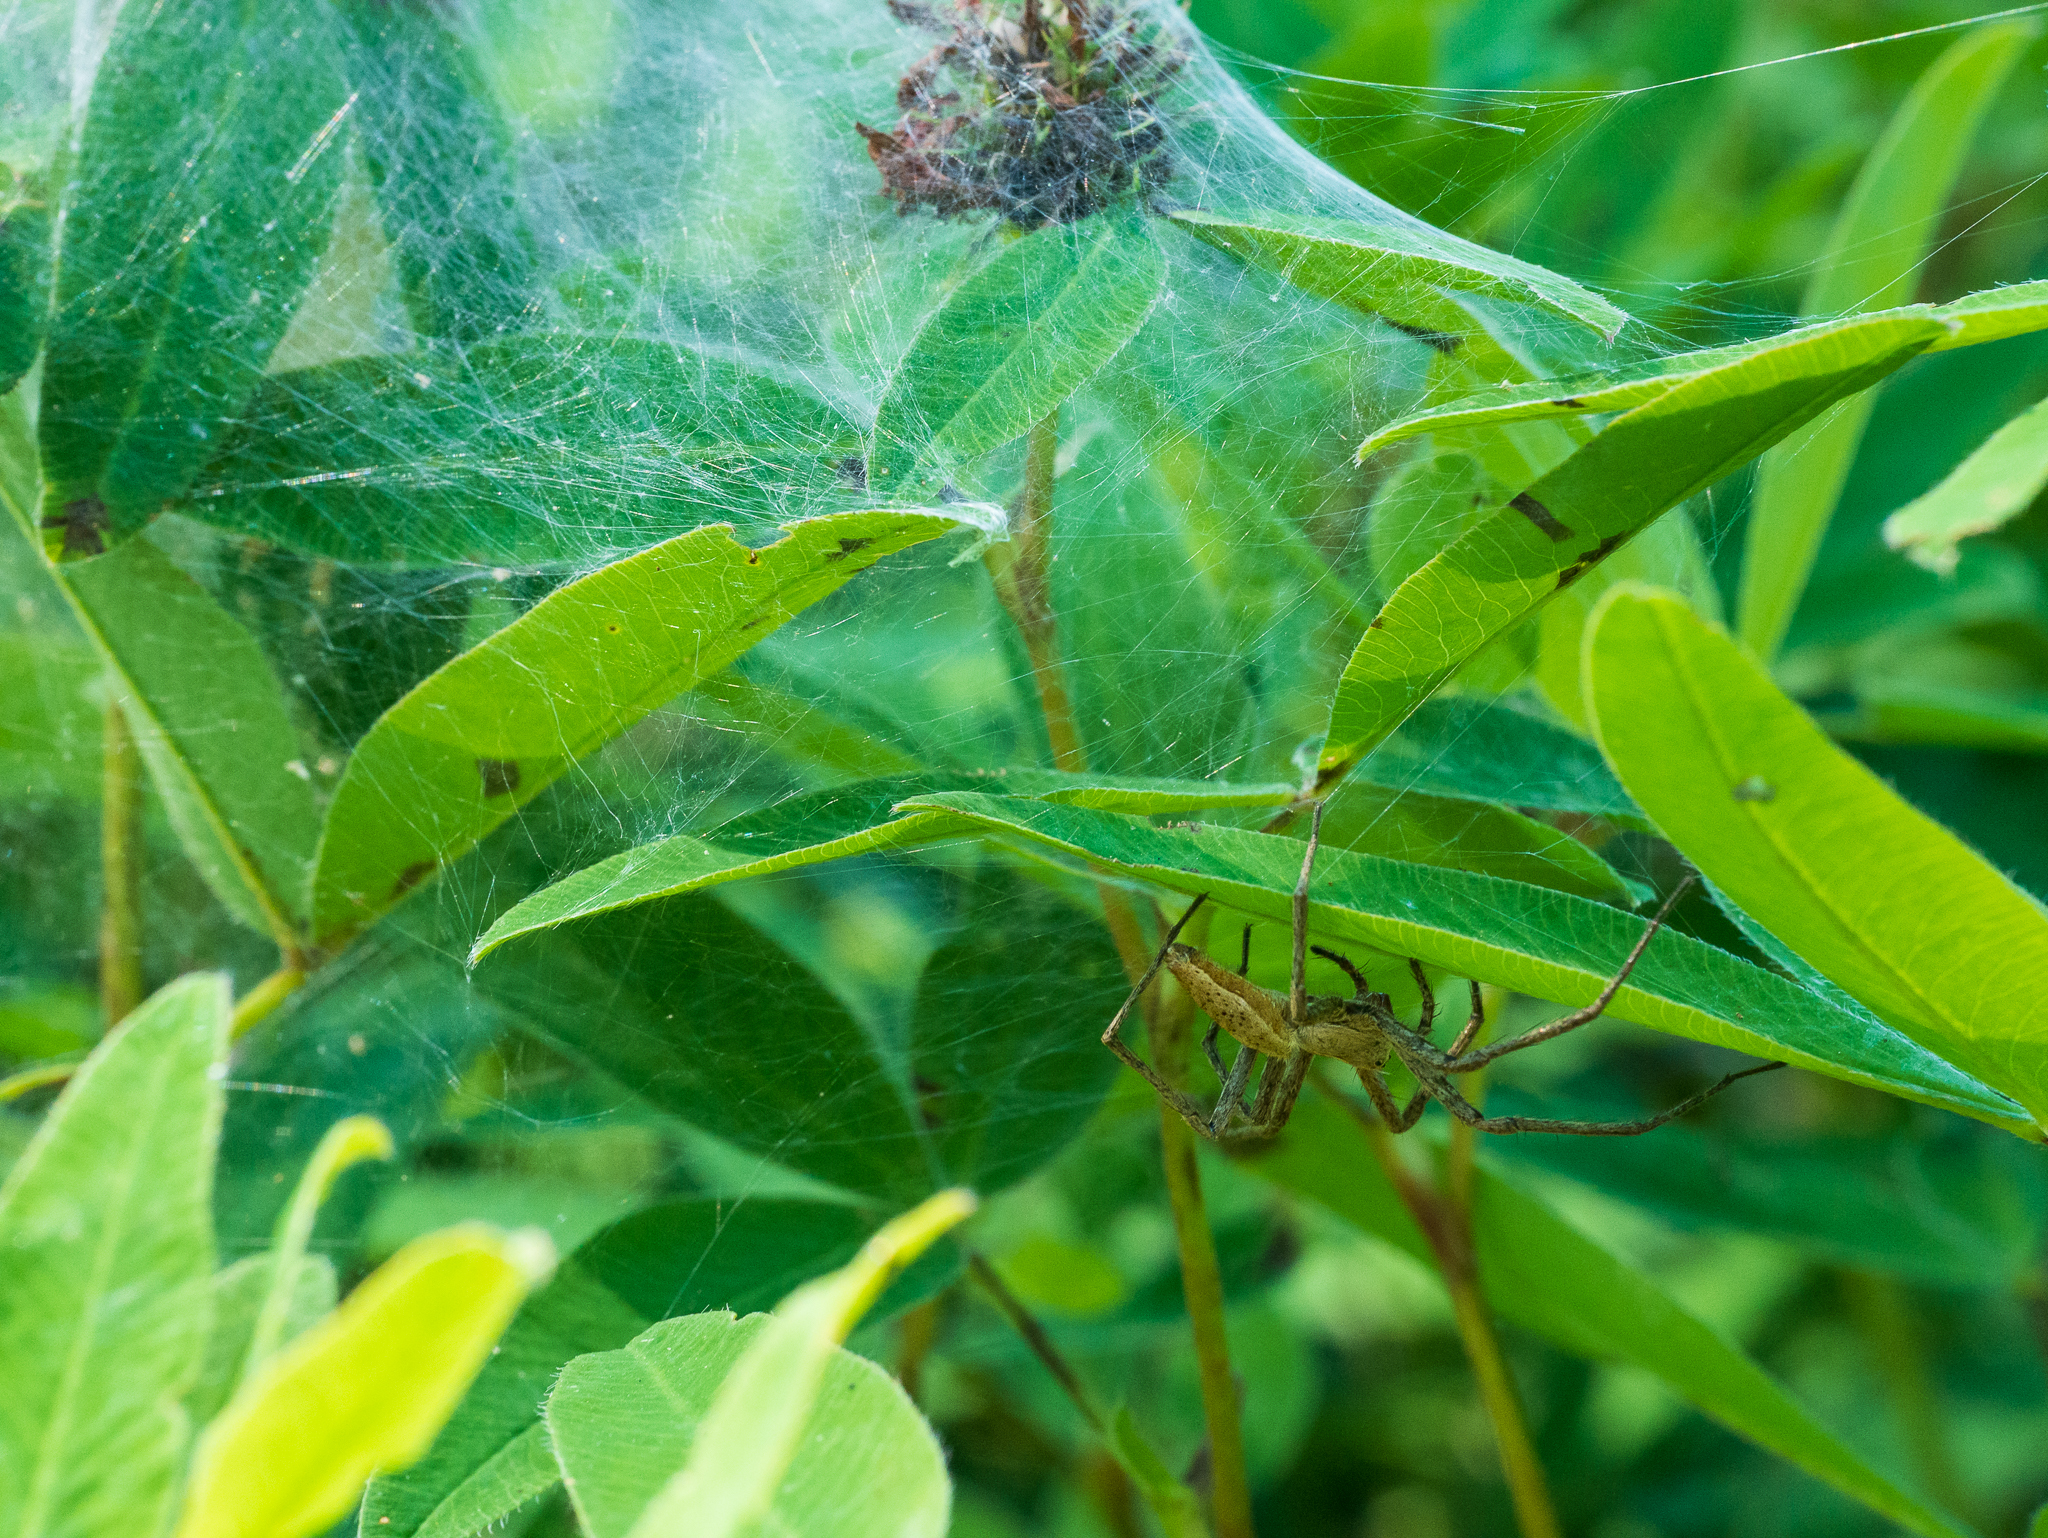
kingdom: Animalia
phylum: Arthropoda
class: Arachnida
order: Araneae
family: Pisauridae
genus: Pisaura
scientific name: Pisaura mirabilis
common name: Tent spider
